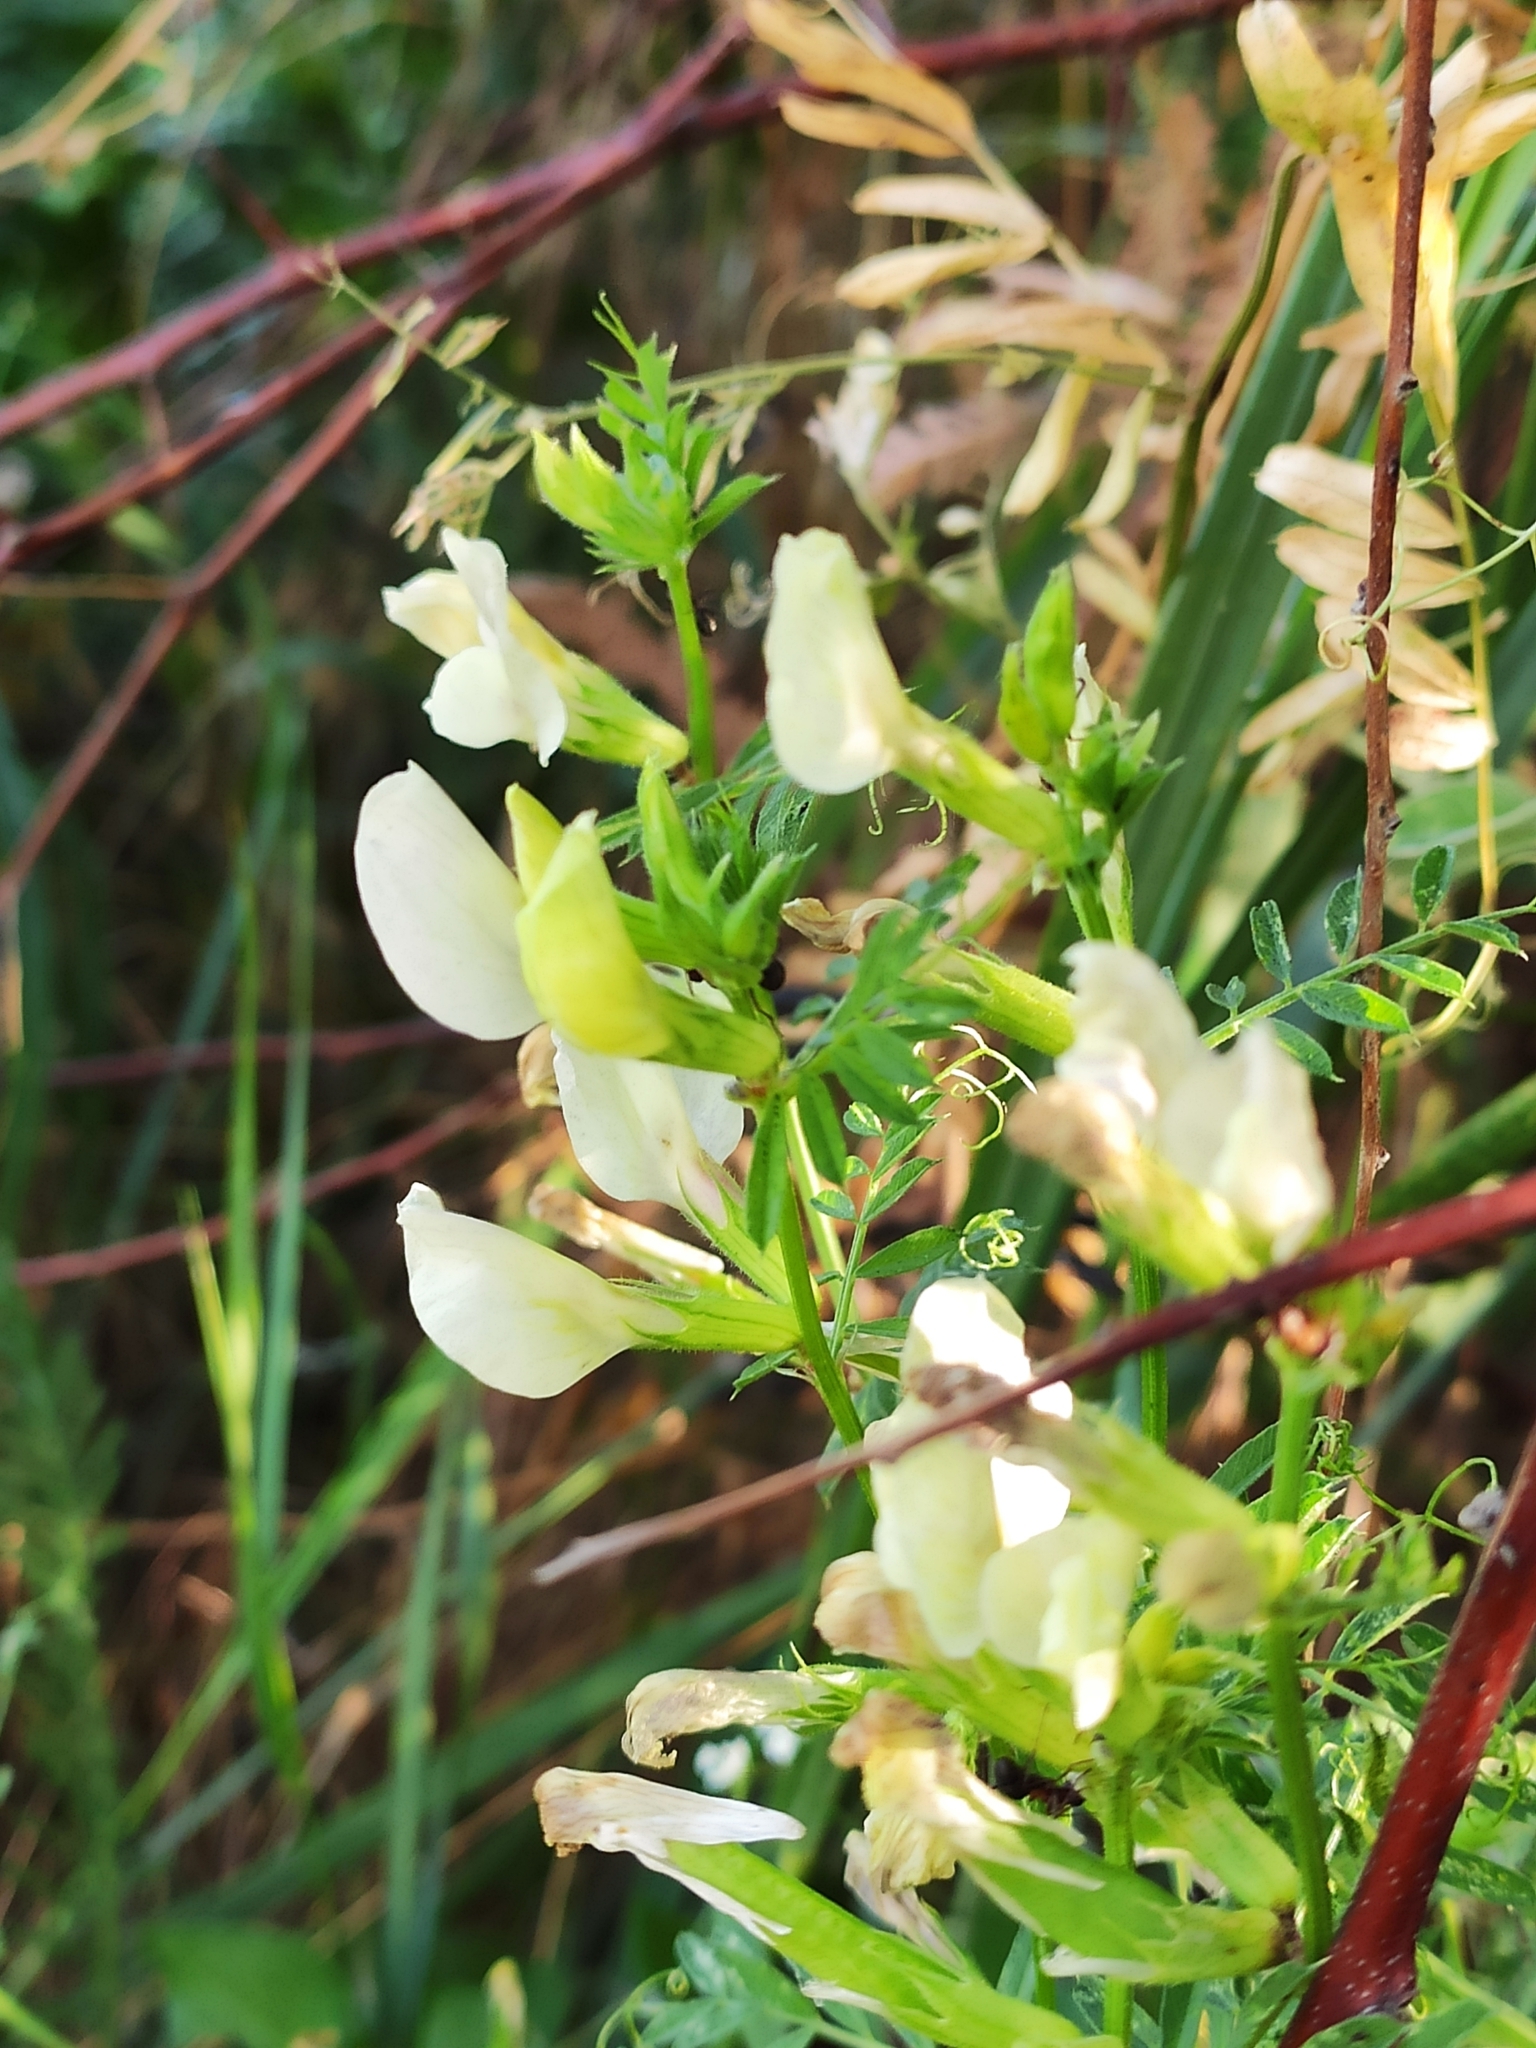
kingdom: Plantae
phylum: Tracheophyta
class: Magnoliopsida
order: Fabales
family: Fabaceae
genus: Vicia
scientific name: Vicia grandiflora
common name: Large yellow vetch
